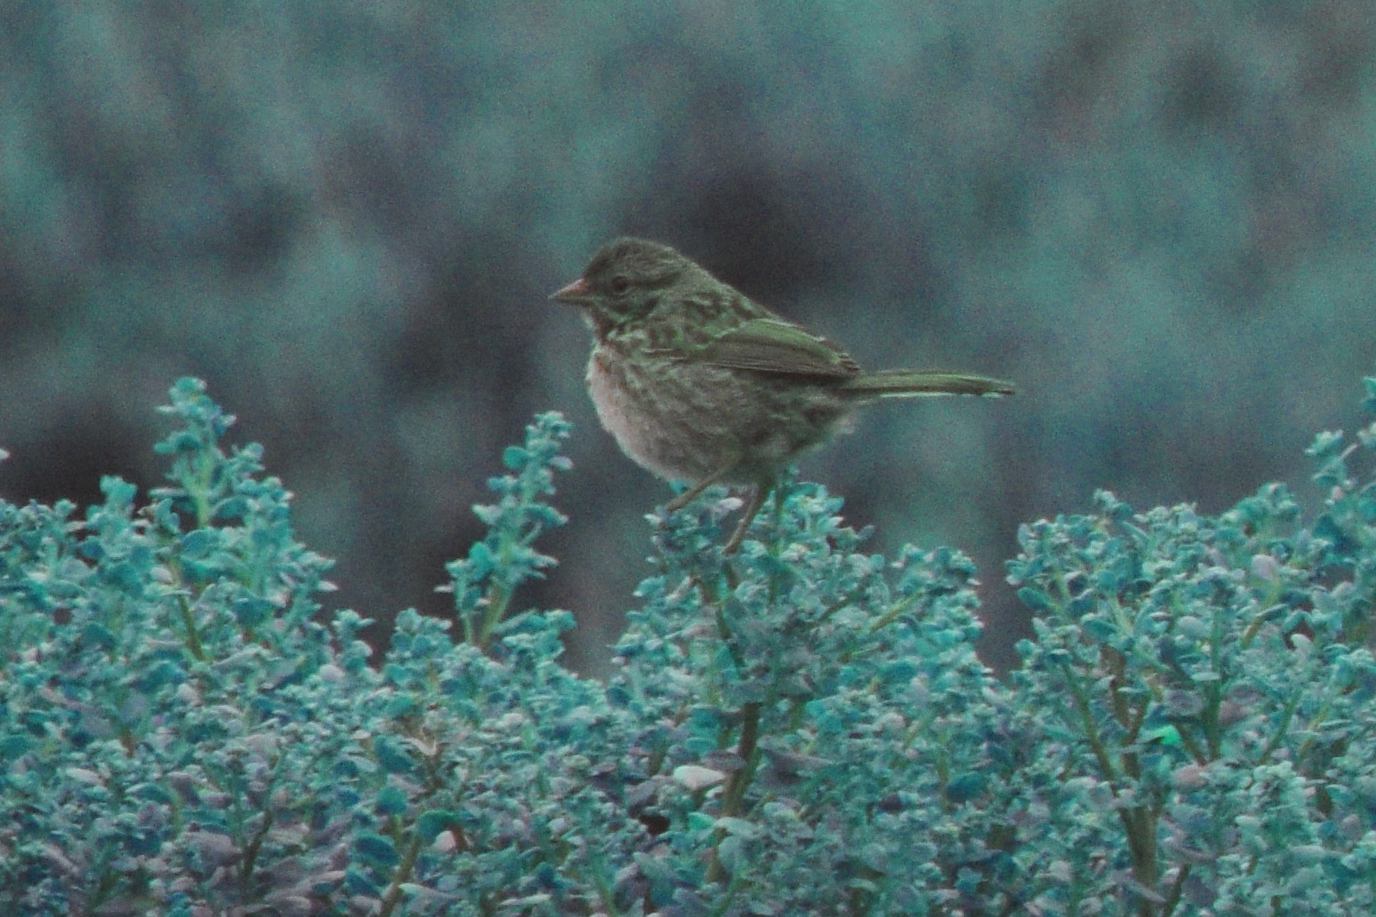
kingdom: Animalia
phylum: Chordata
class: Aves
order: Passeriformes
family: Passerellidae
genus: Melospiza
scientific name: Melospiza melodia
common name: Song sparrow
